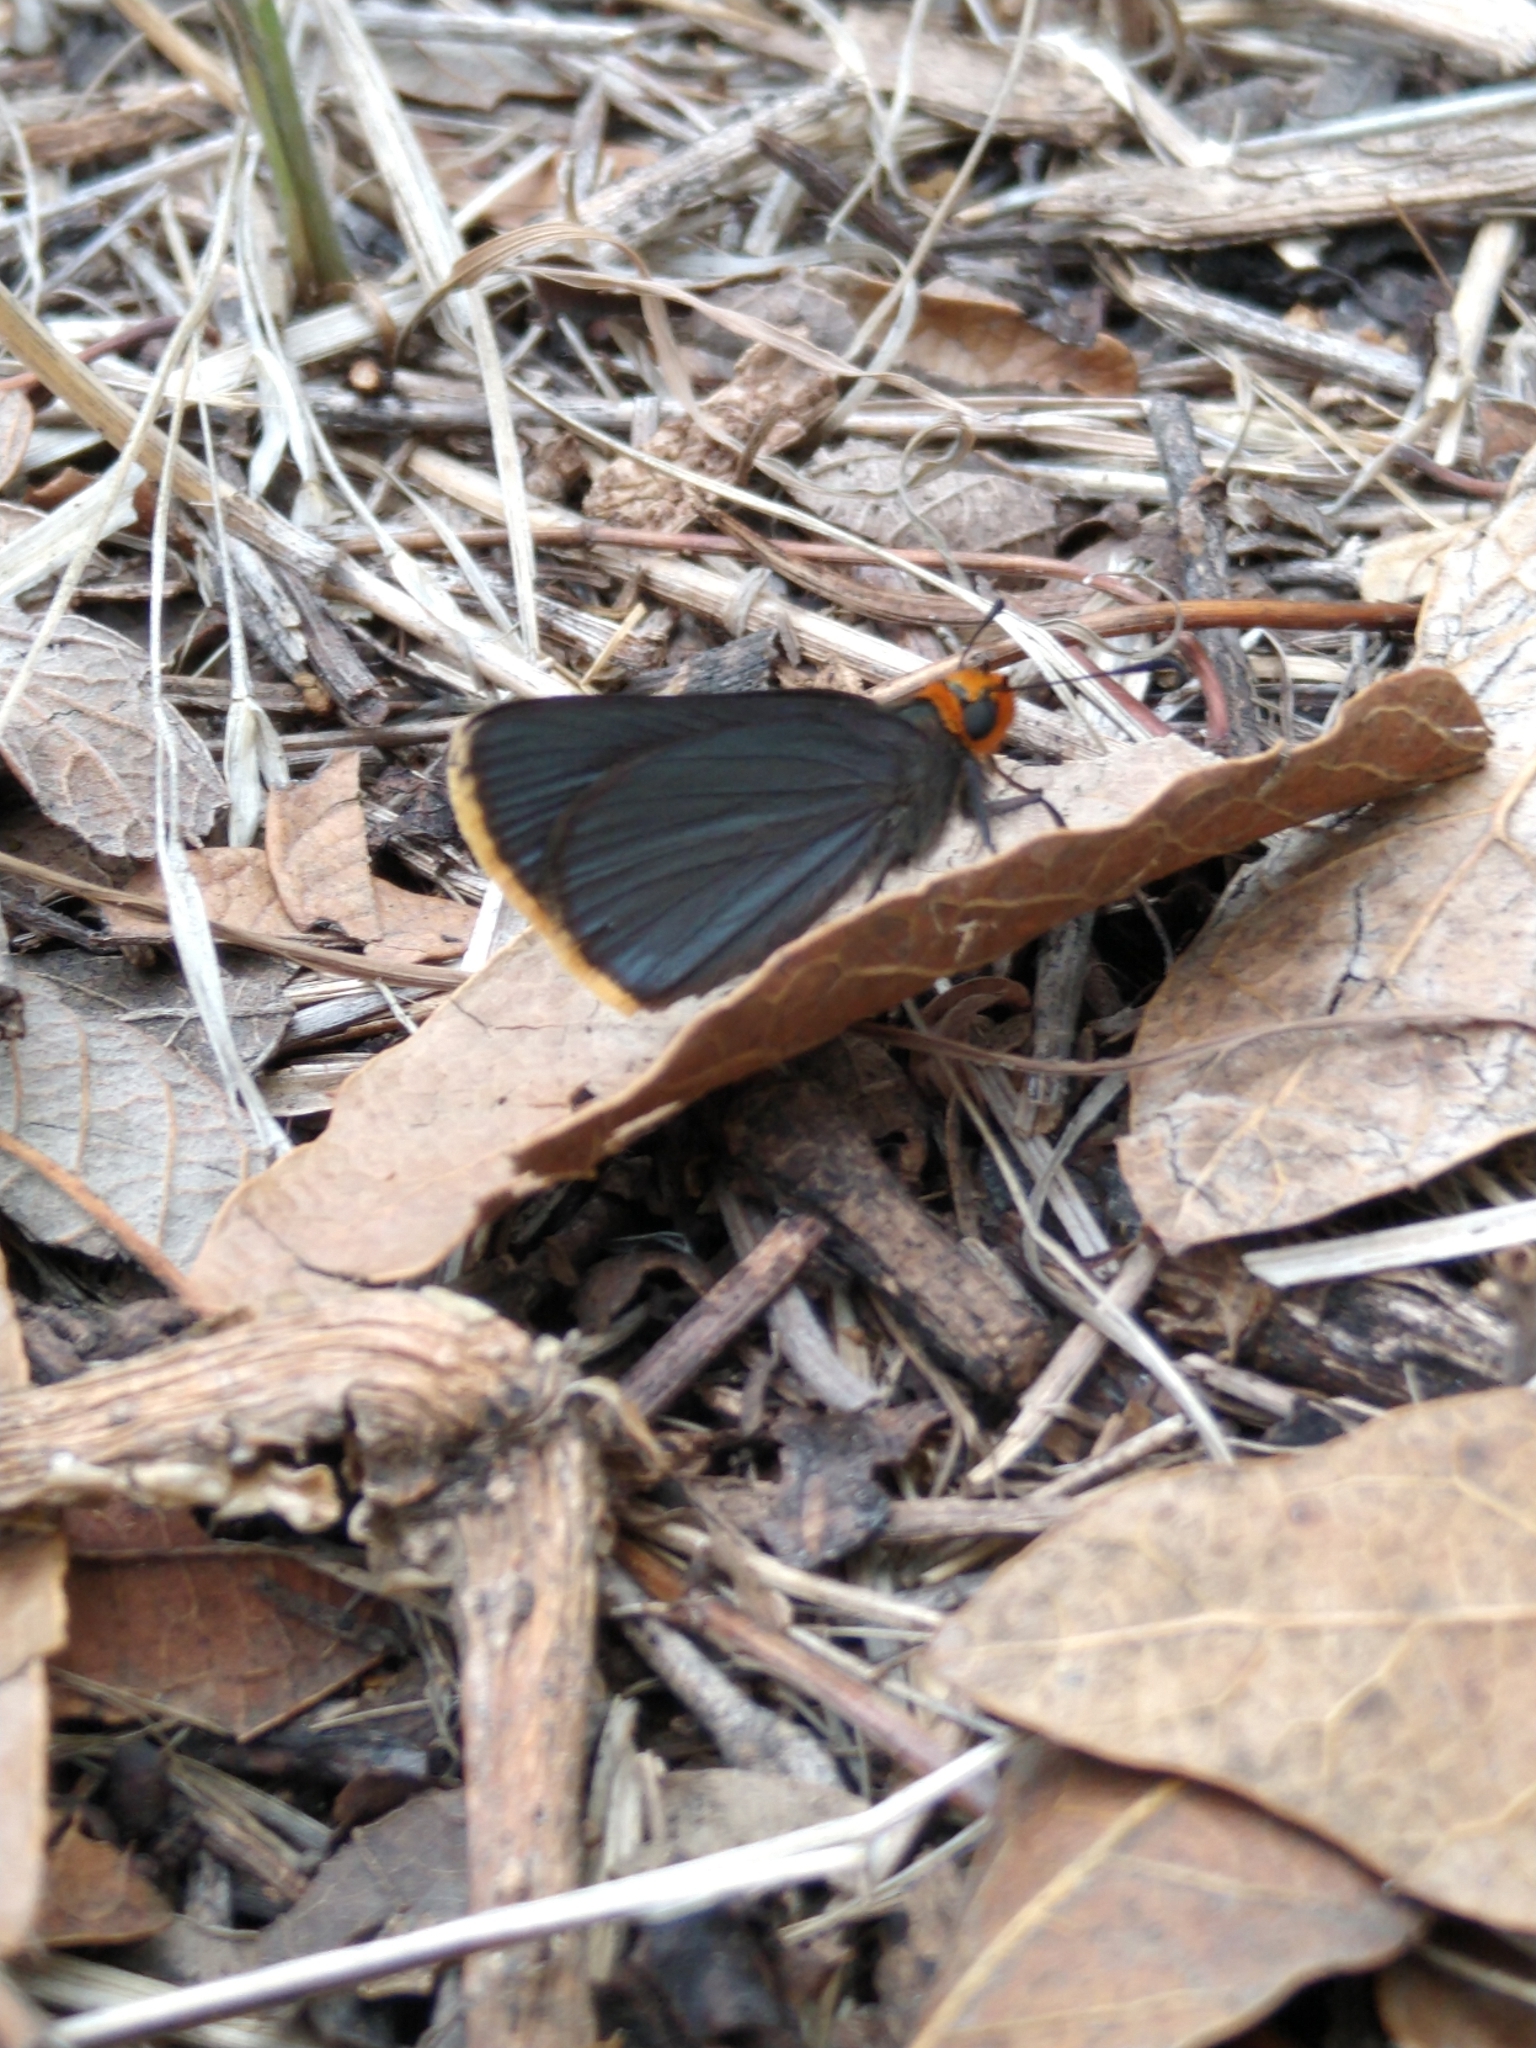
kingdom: Animalia
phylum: Arthropoda
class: Insecta
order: Lepidoptera
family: Hesperiidae
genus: Mastor
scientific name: Mastor fimbriata
